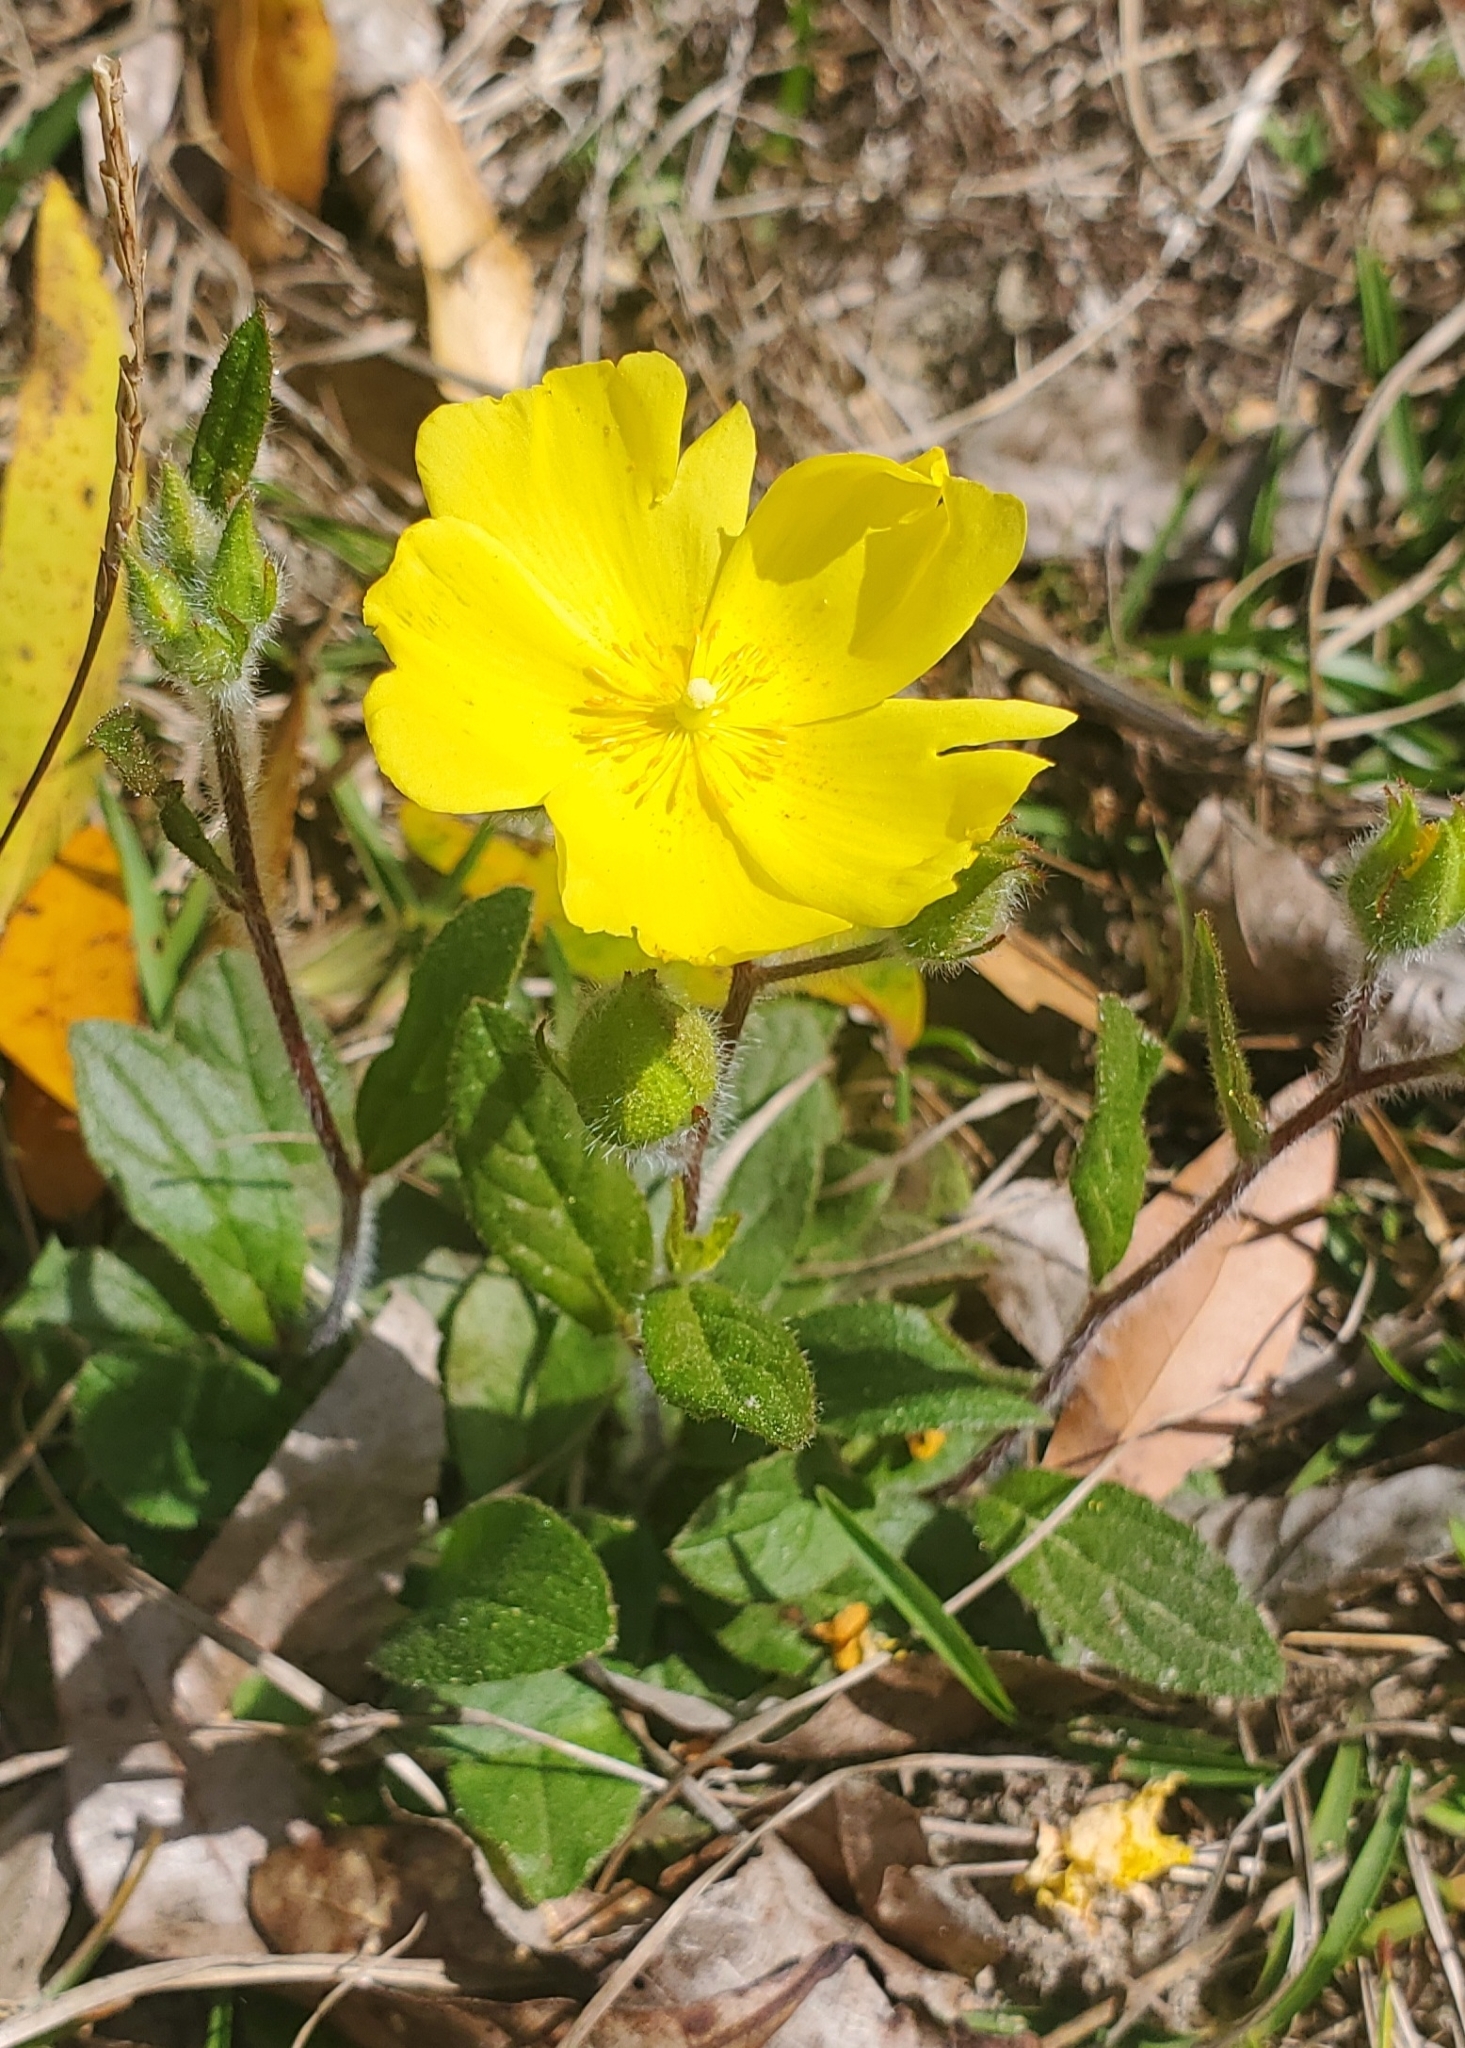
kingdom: Plantae
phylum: Tracheophyta
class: Magnoliopsida
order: Malvales
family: Cistaceae
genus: Crocanthemum
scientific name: Crocanthemum carolinianum
